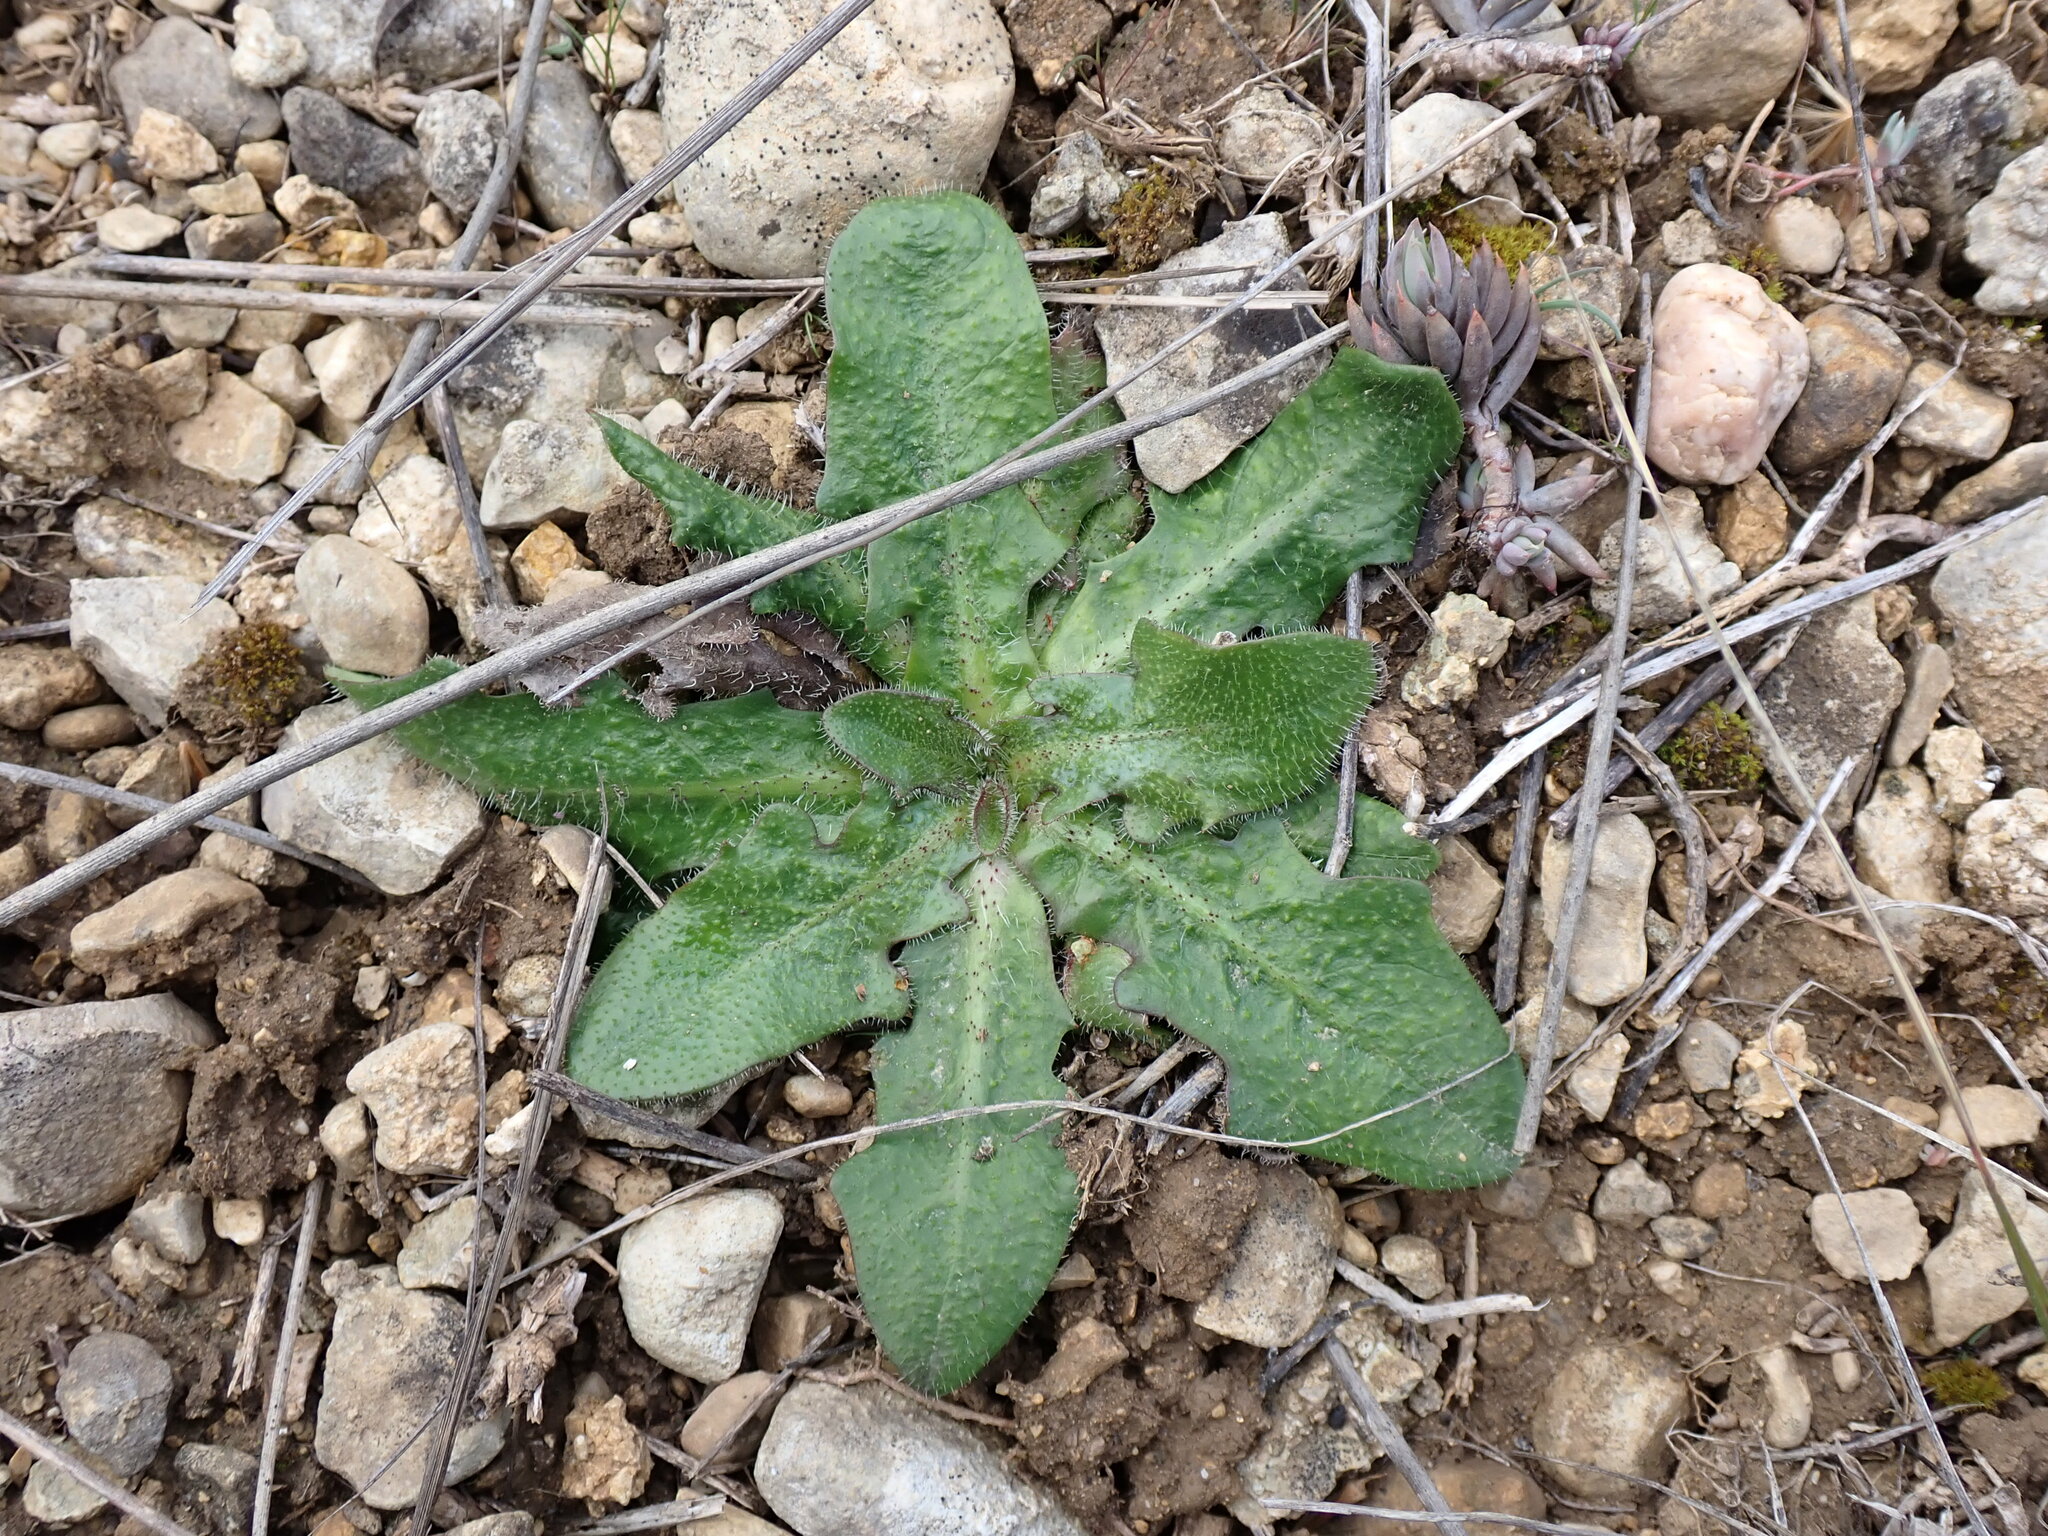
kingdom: Plantae
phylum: Tracheophyta
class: Magnoliopsida
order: Asterales
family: Asteraceae
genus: Hypochaeris
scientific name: Hypochaeris radicata
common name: Flatweed
